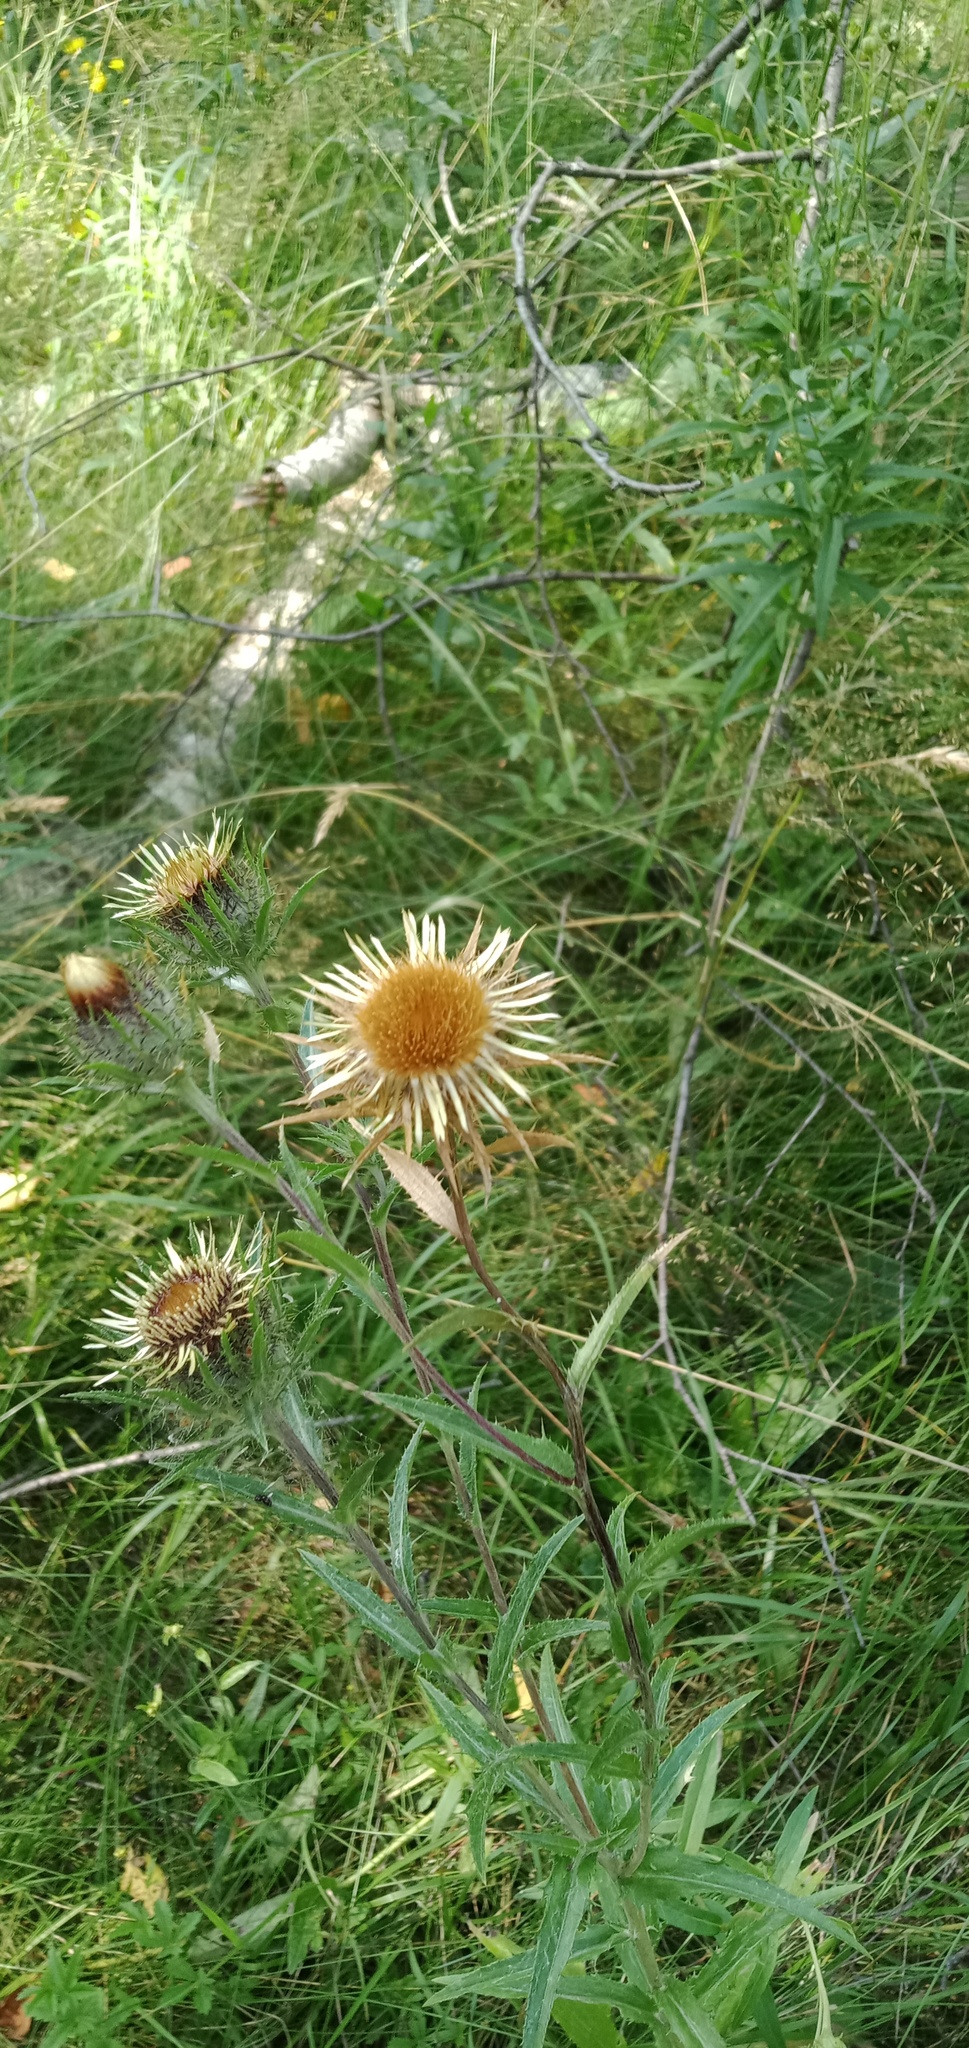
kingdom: Plantae
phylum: Tracheophyta
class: Magnoliopsida
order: Asterales
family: Asteraceae
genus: Carlina
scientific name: Carlina biebersteinii
